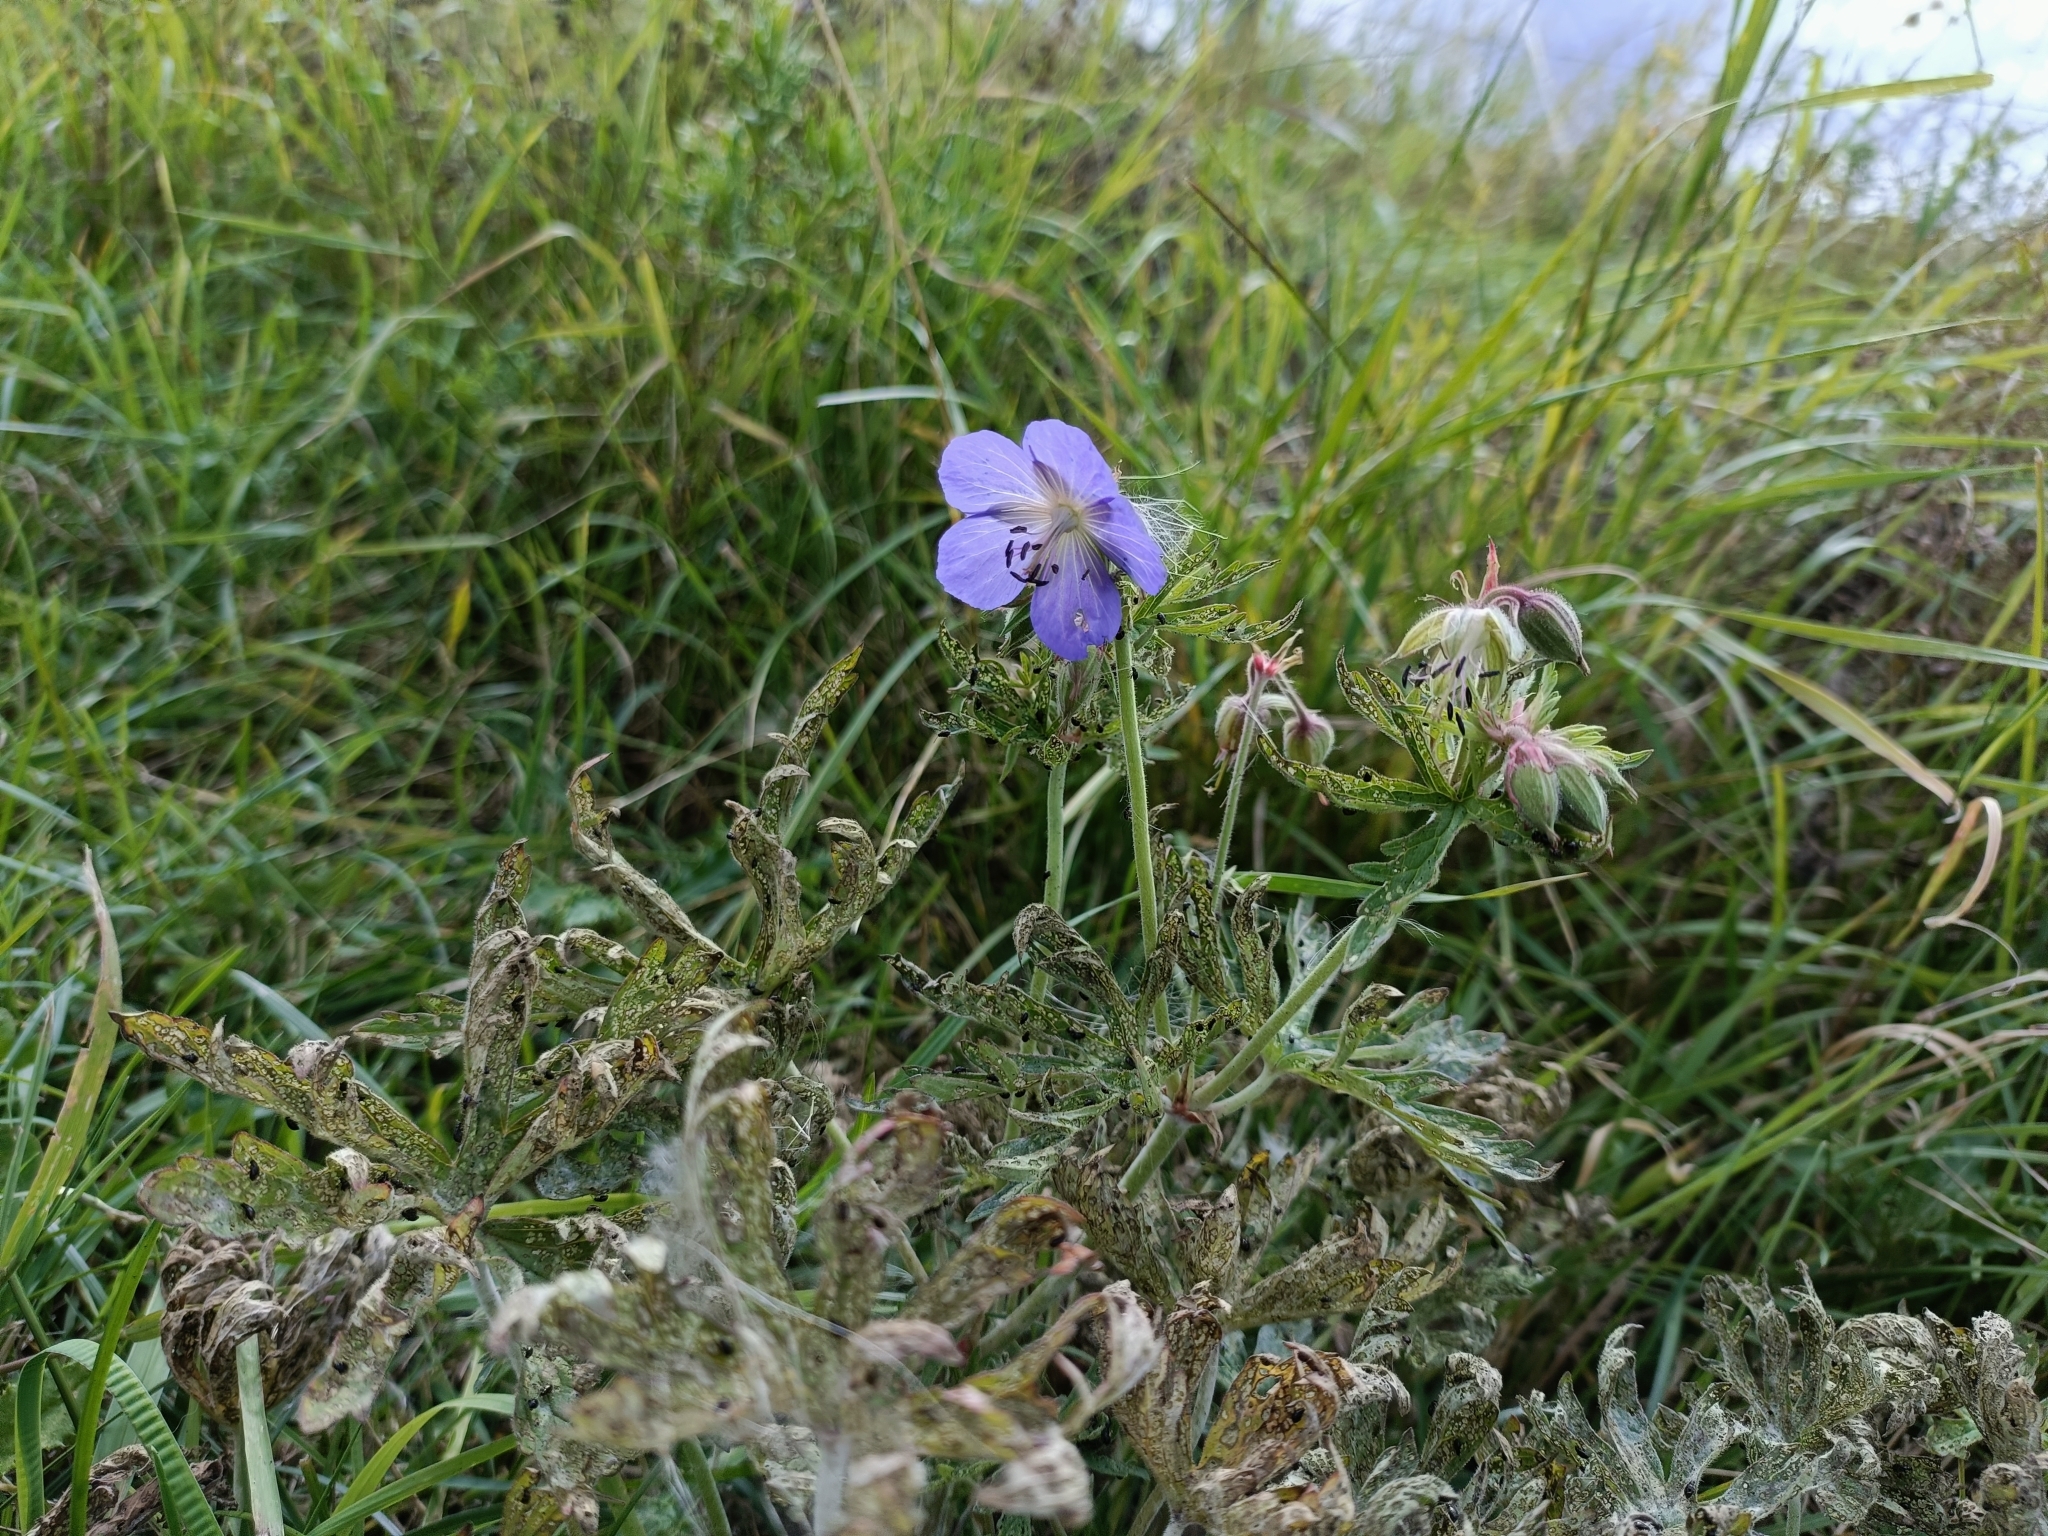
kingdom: Plantae
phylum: Tracheophyta
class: Magnoliopsida
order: Geraniales
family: Geraniaceae
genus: Geranium
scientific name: Geranium pratense
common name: Meadow crane's-bill
